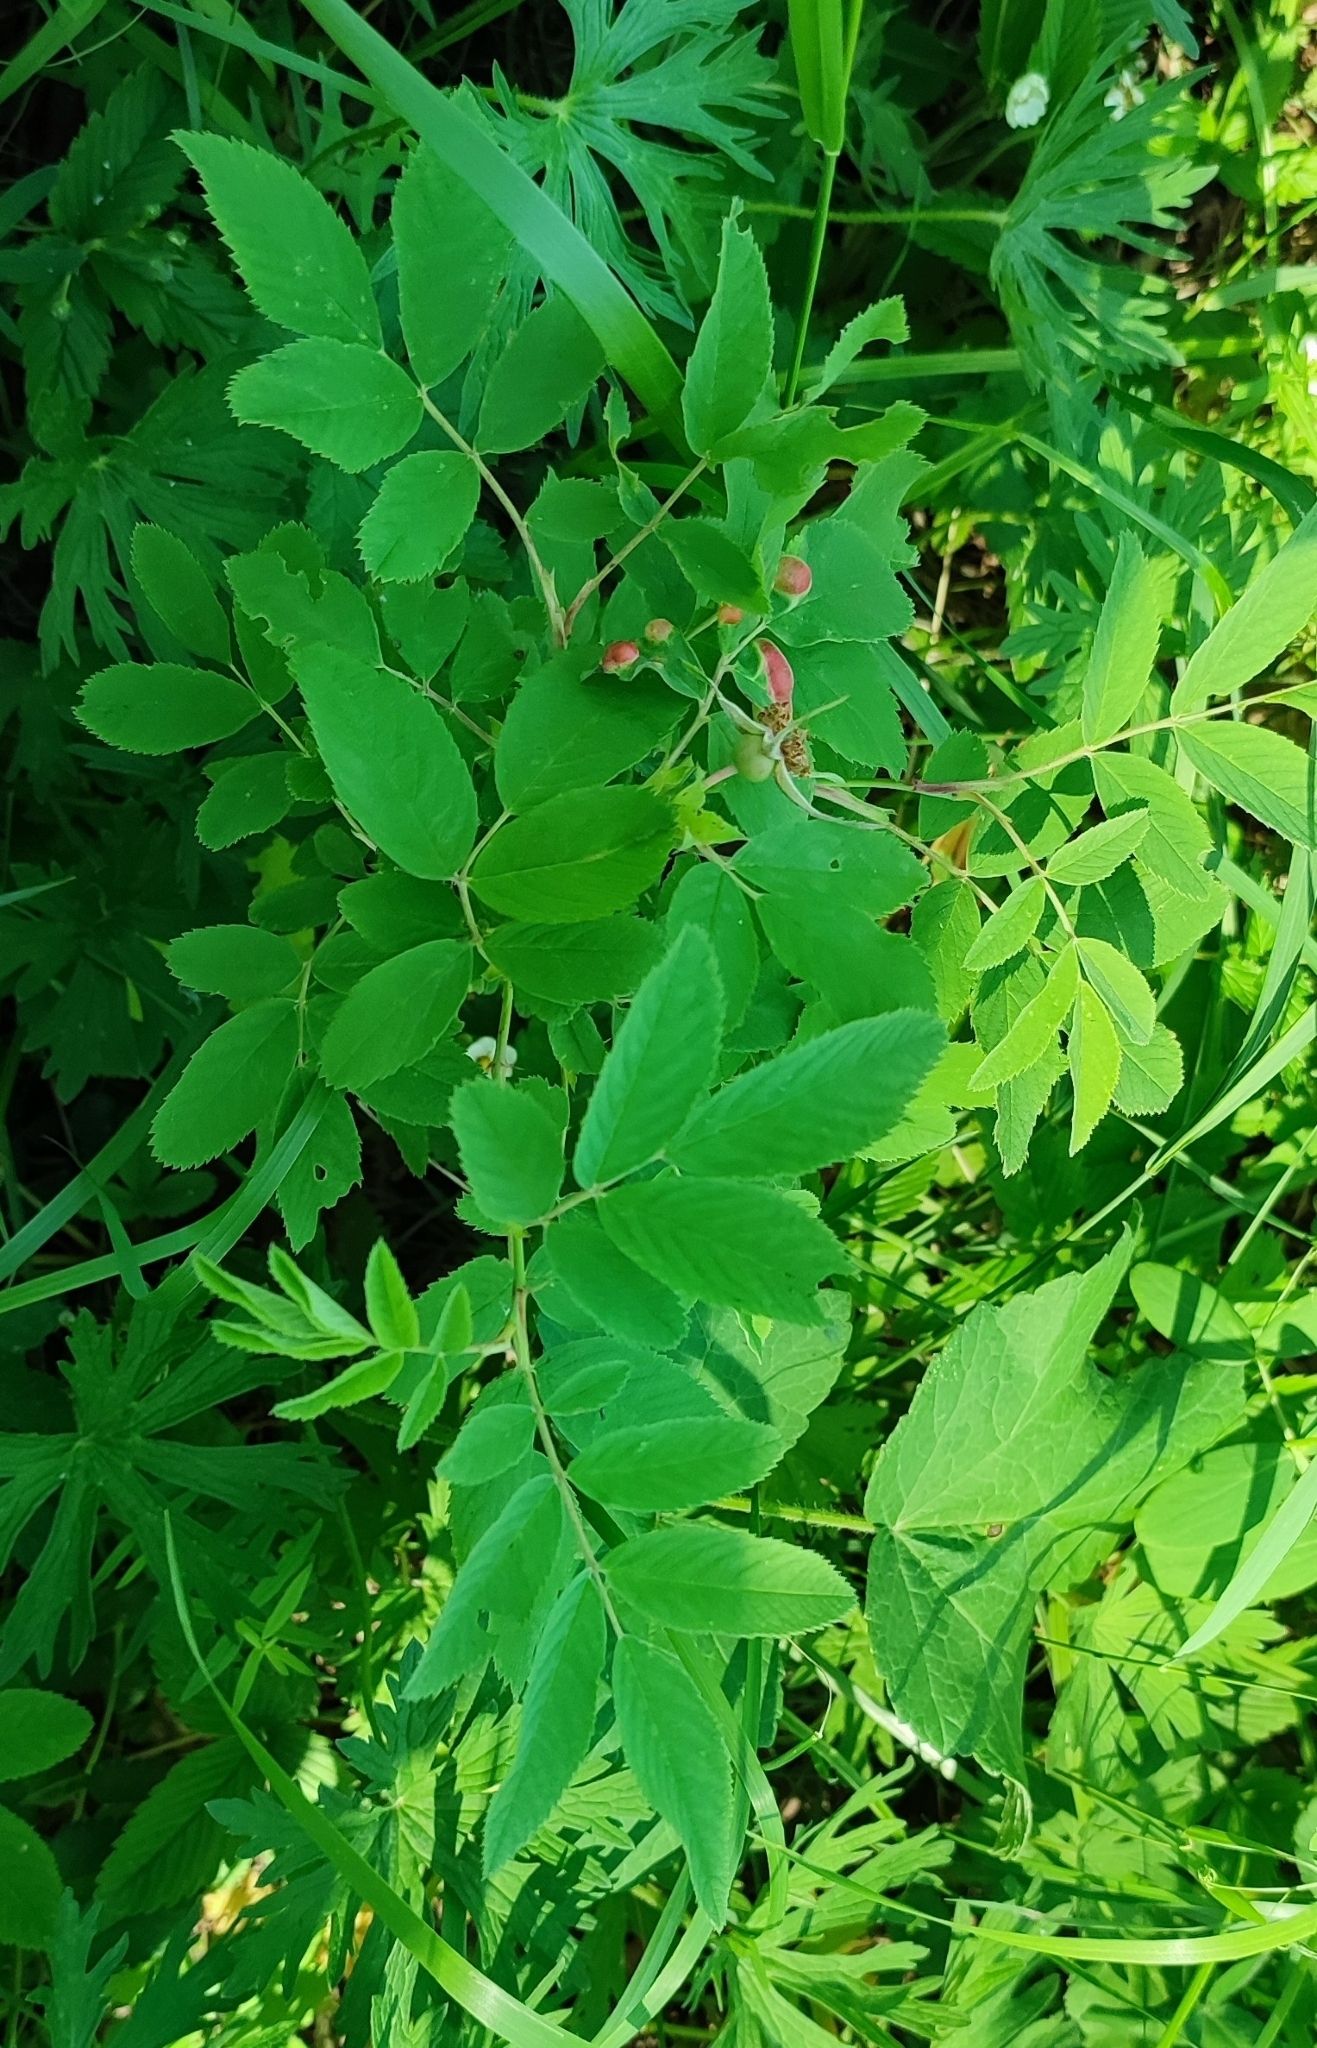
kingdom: Plantae
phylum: Tracheophyta
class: Magnoliopsida
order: Rosales
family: Rosaceae
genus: Rosa
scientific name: Rosa majalis
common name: Cinnamon rose
